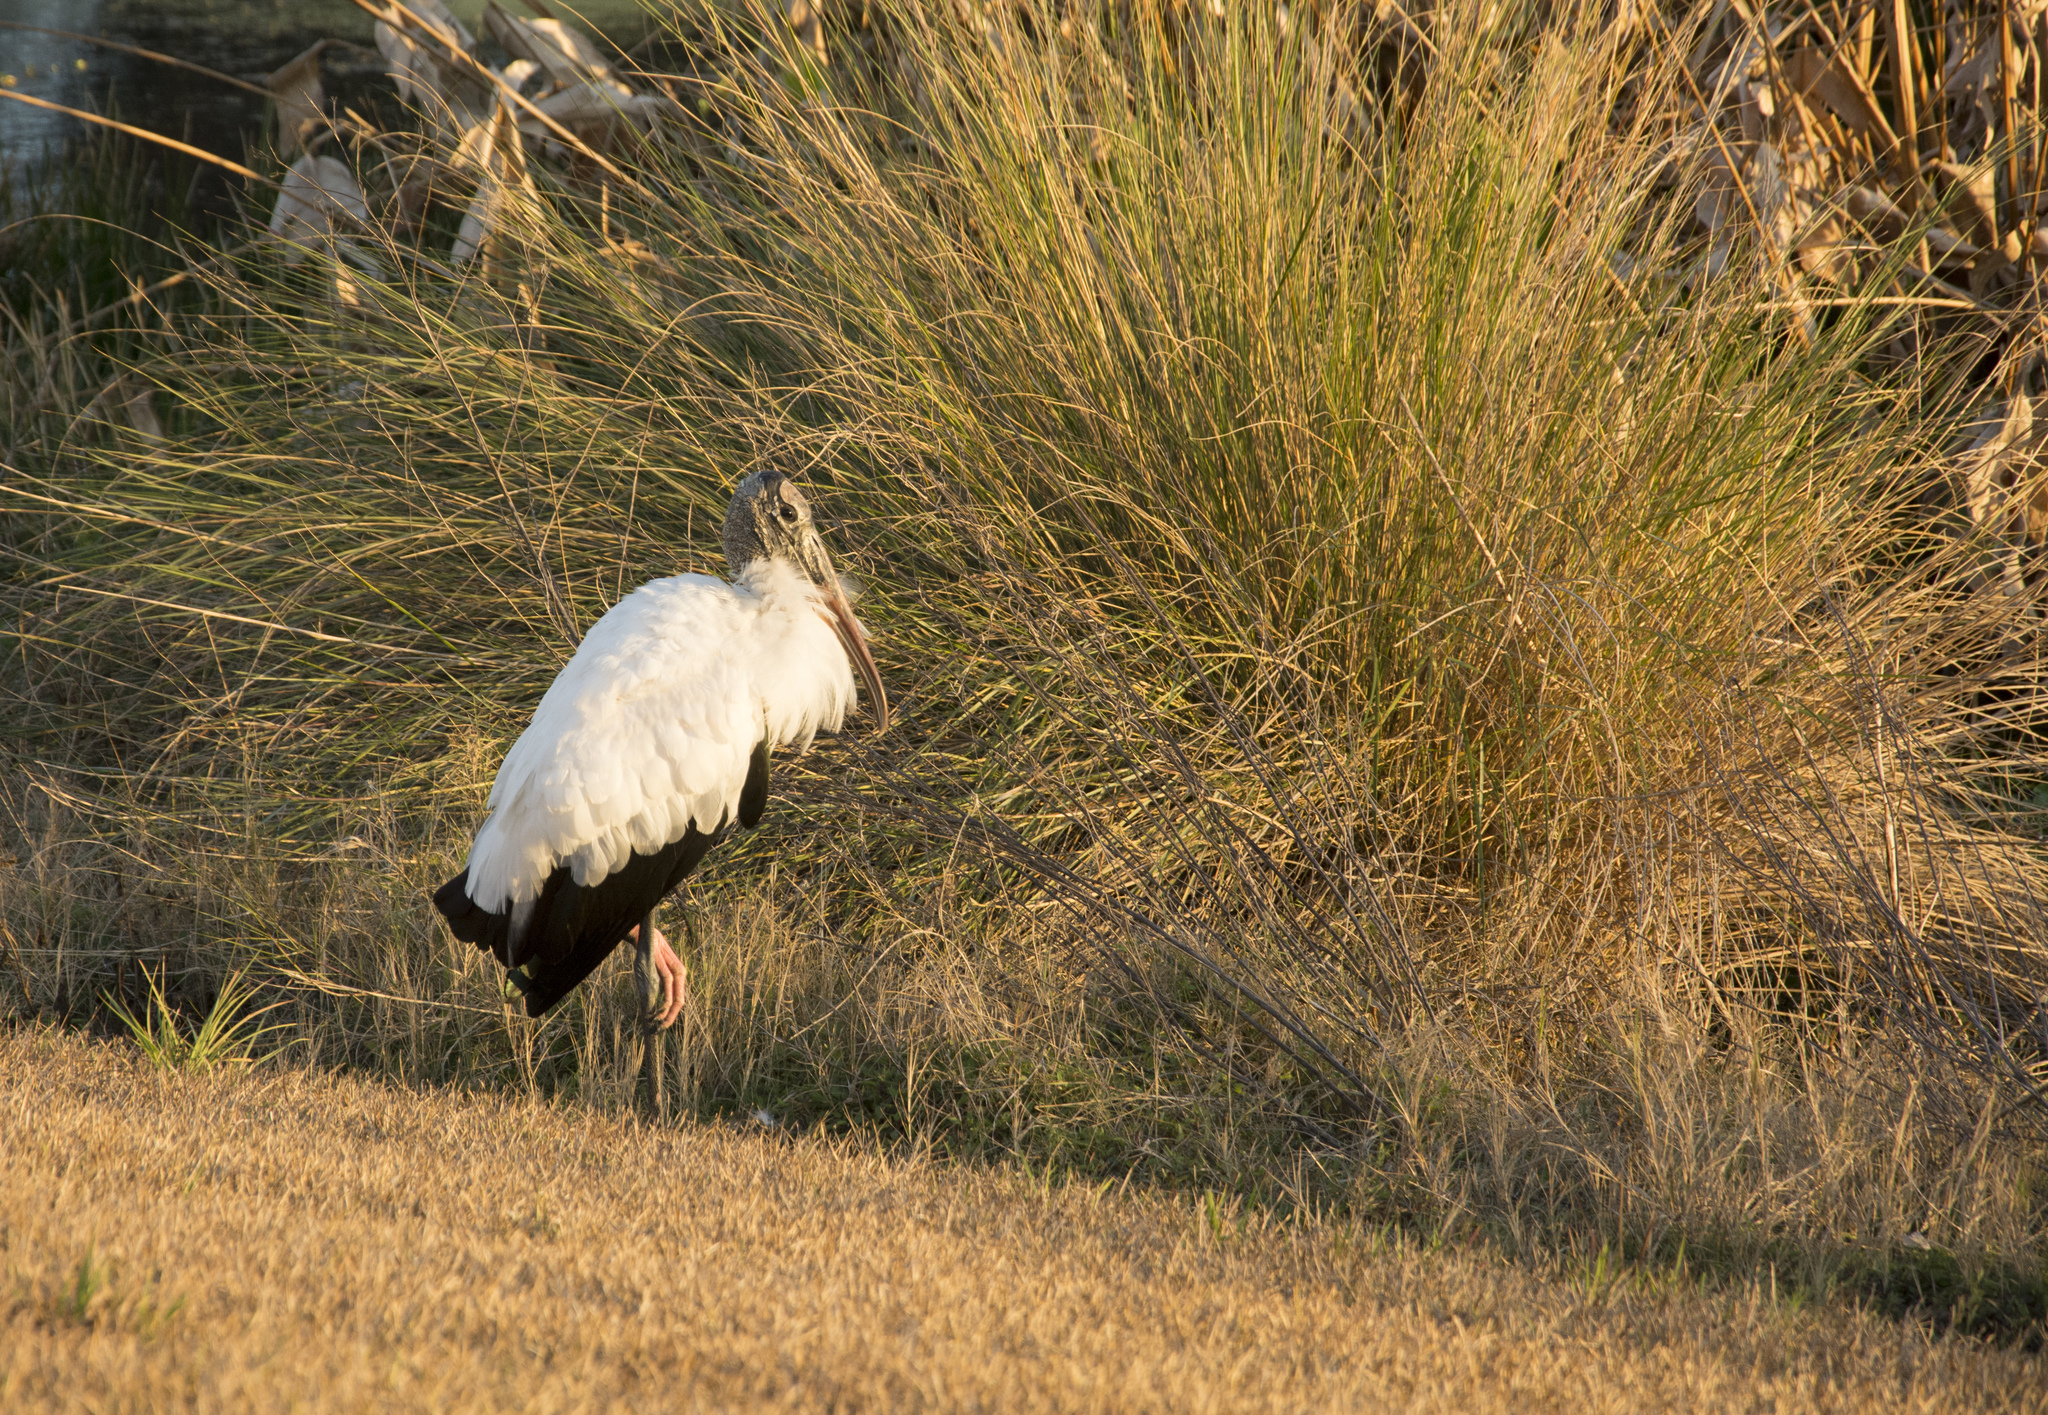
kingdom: Animalia
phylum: Chordata
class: Aves
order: Ciconiiformes
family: Ciconiidae
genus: Mycteria
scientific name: Mycteria americana
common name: Wood stork
